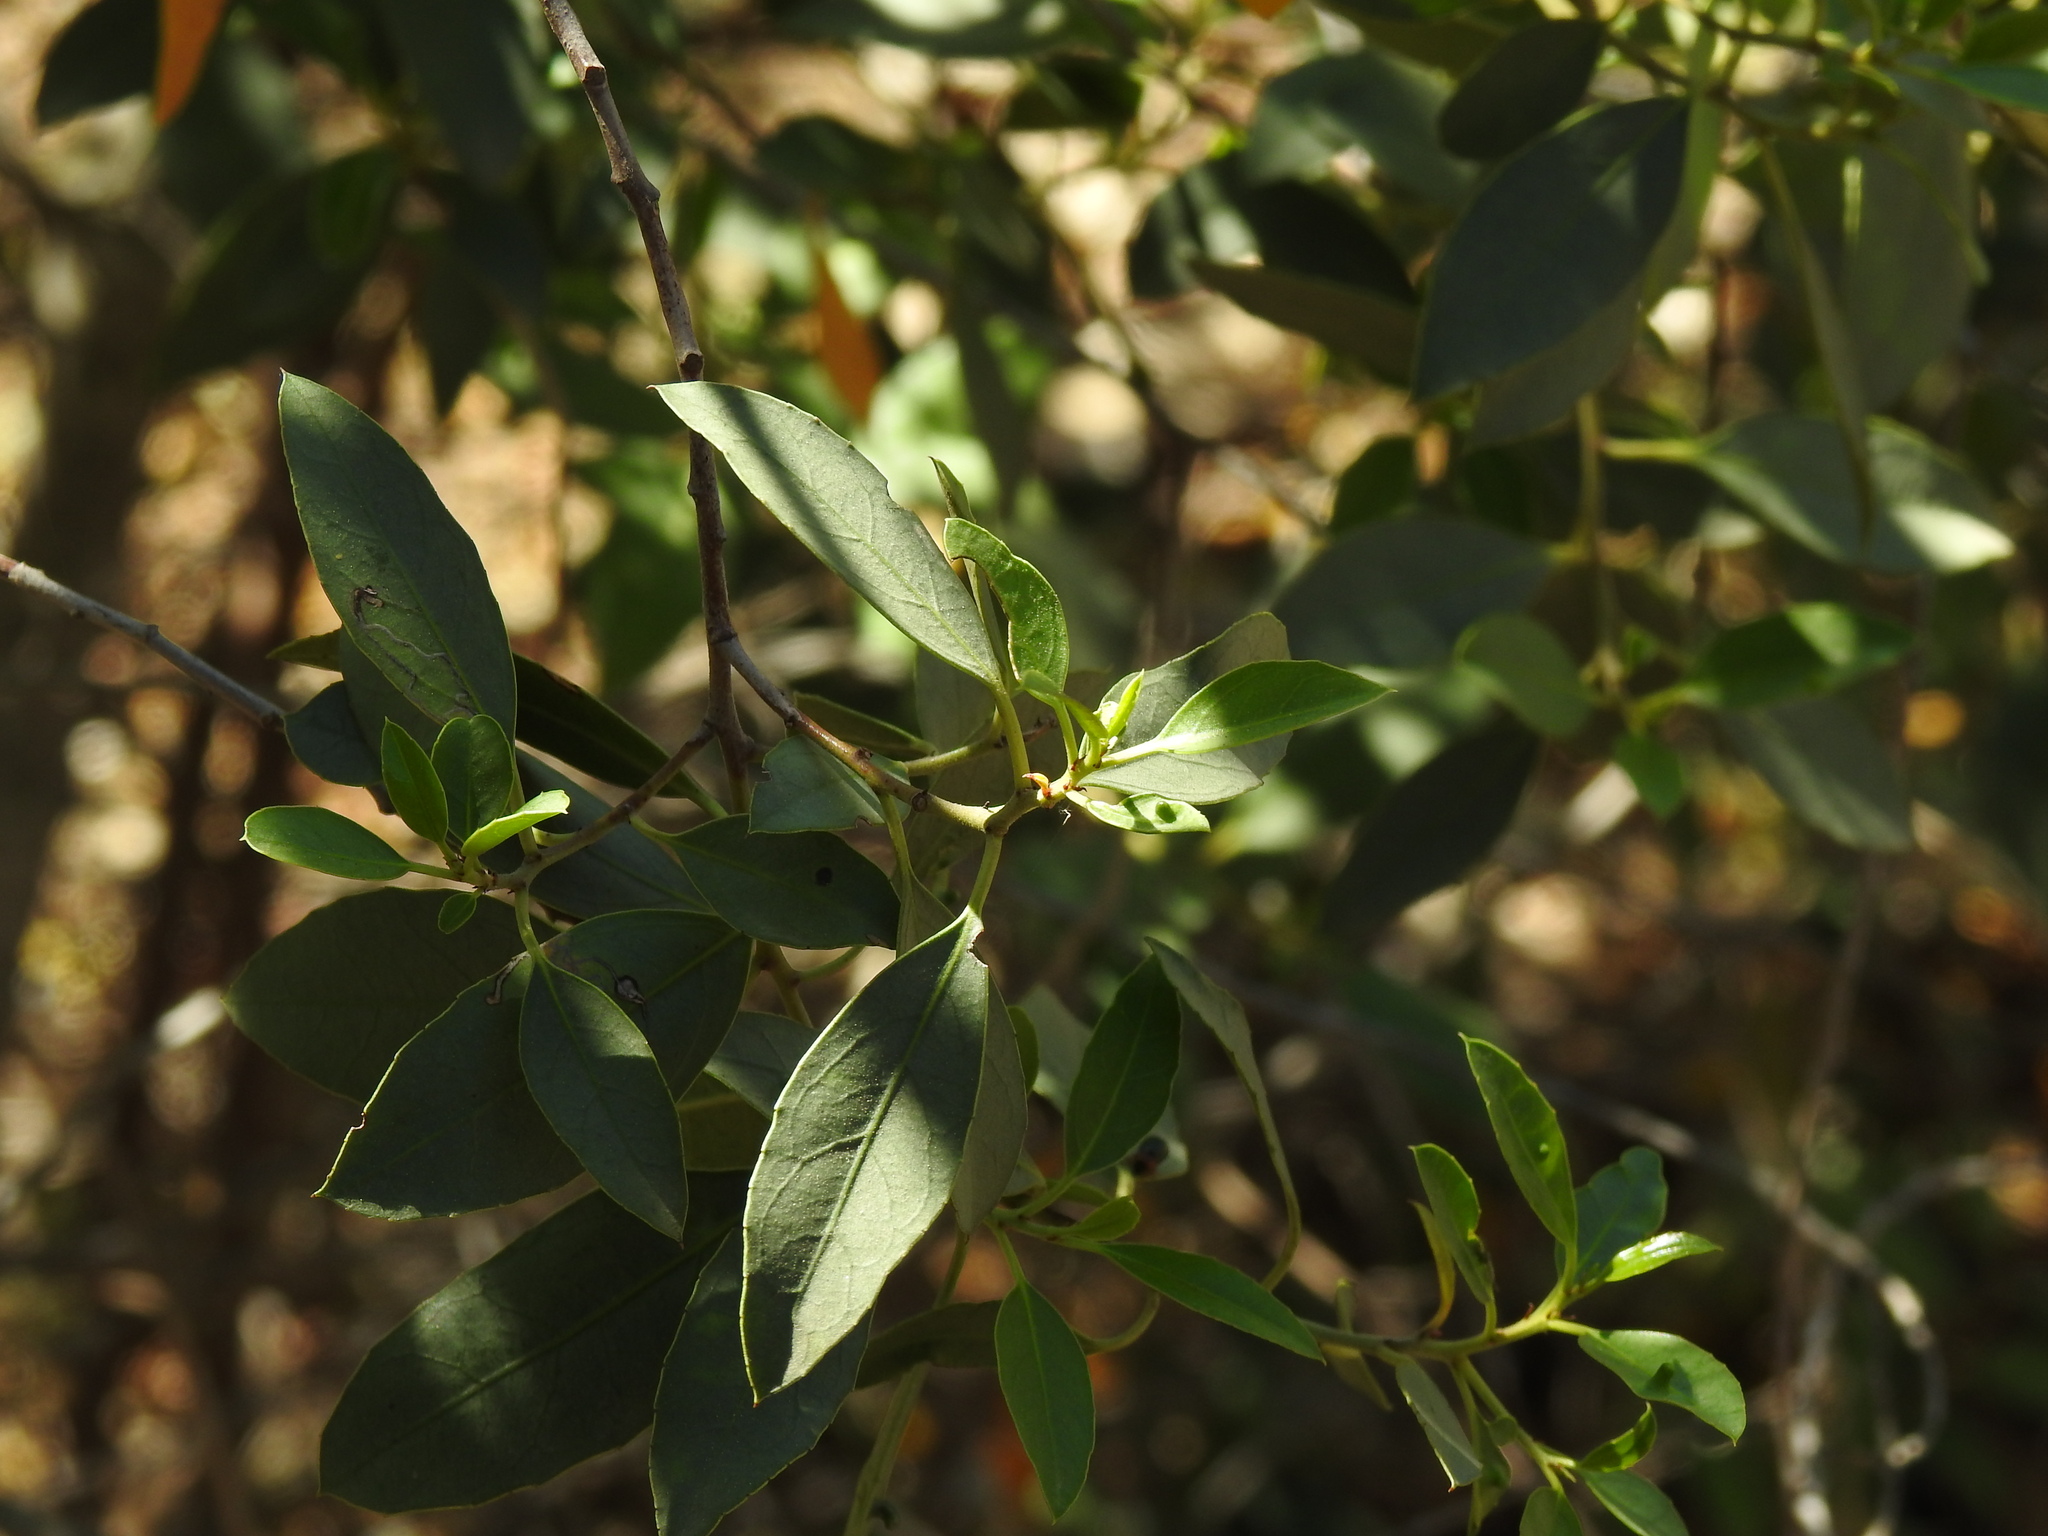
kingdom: Plantae
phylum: Tracheophyta
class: Magnoliopsida
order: Rosales
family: Rhamnaceae
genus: Rhamnus
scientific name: Rhamnus alaternus
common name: Mediterranean buckthorn
